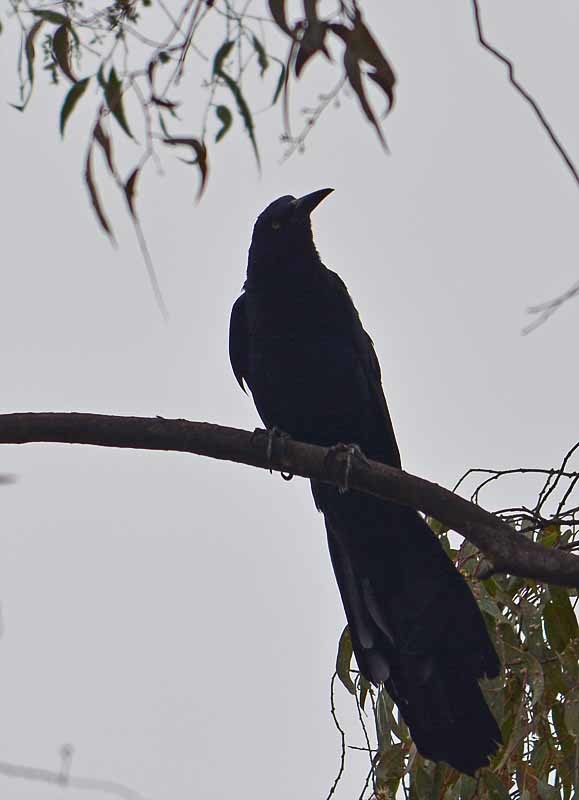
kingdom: Animalia
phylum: Chordata
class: Aves
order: Passeriformes
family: Icteridae
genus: Quiscalus
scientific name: Quiscalus mexicanus
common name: Great-tailed grackle
